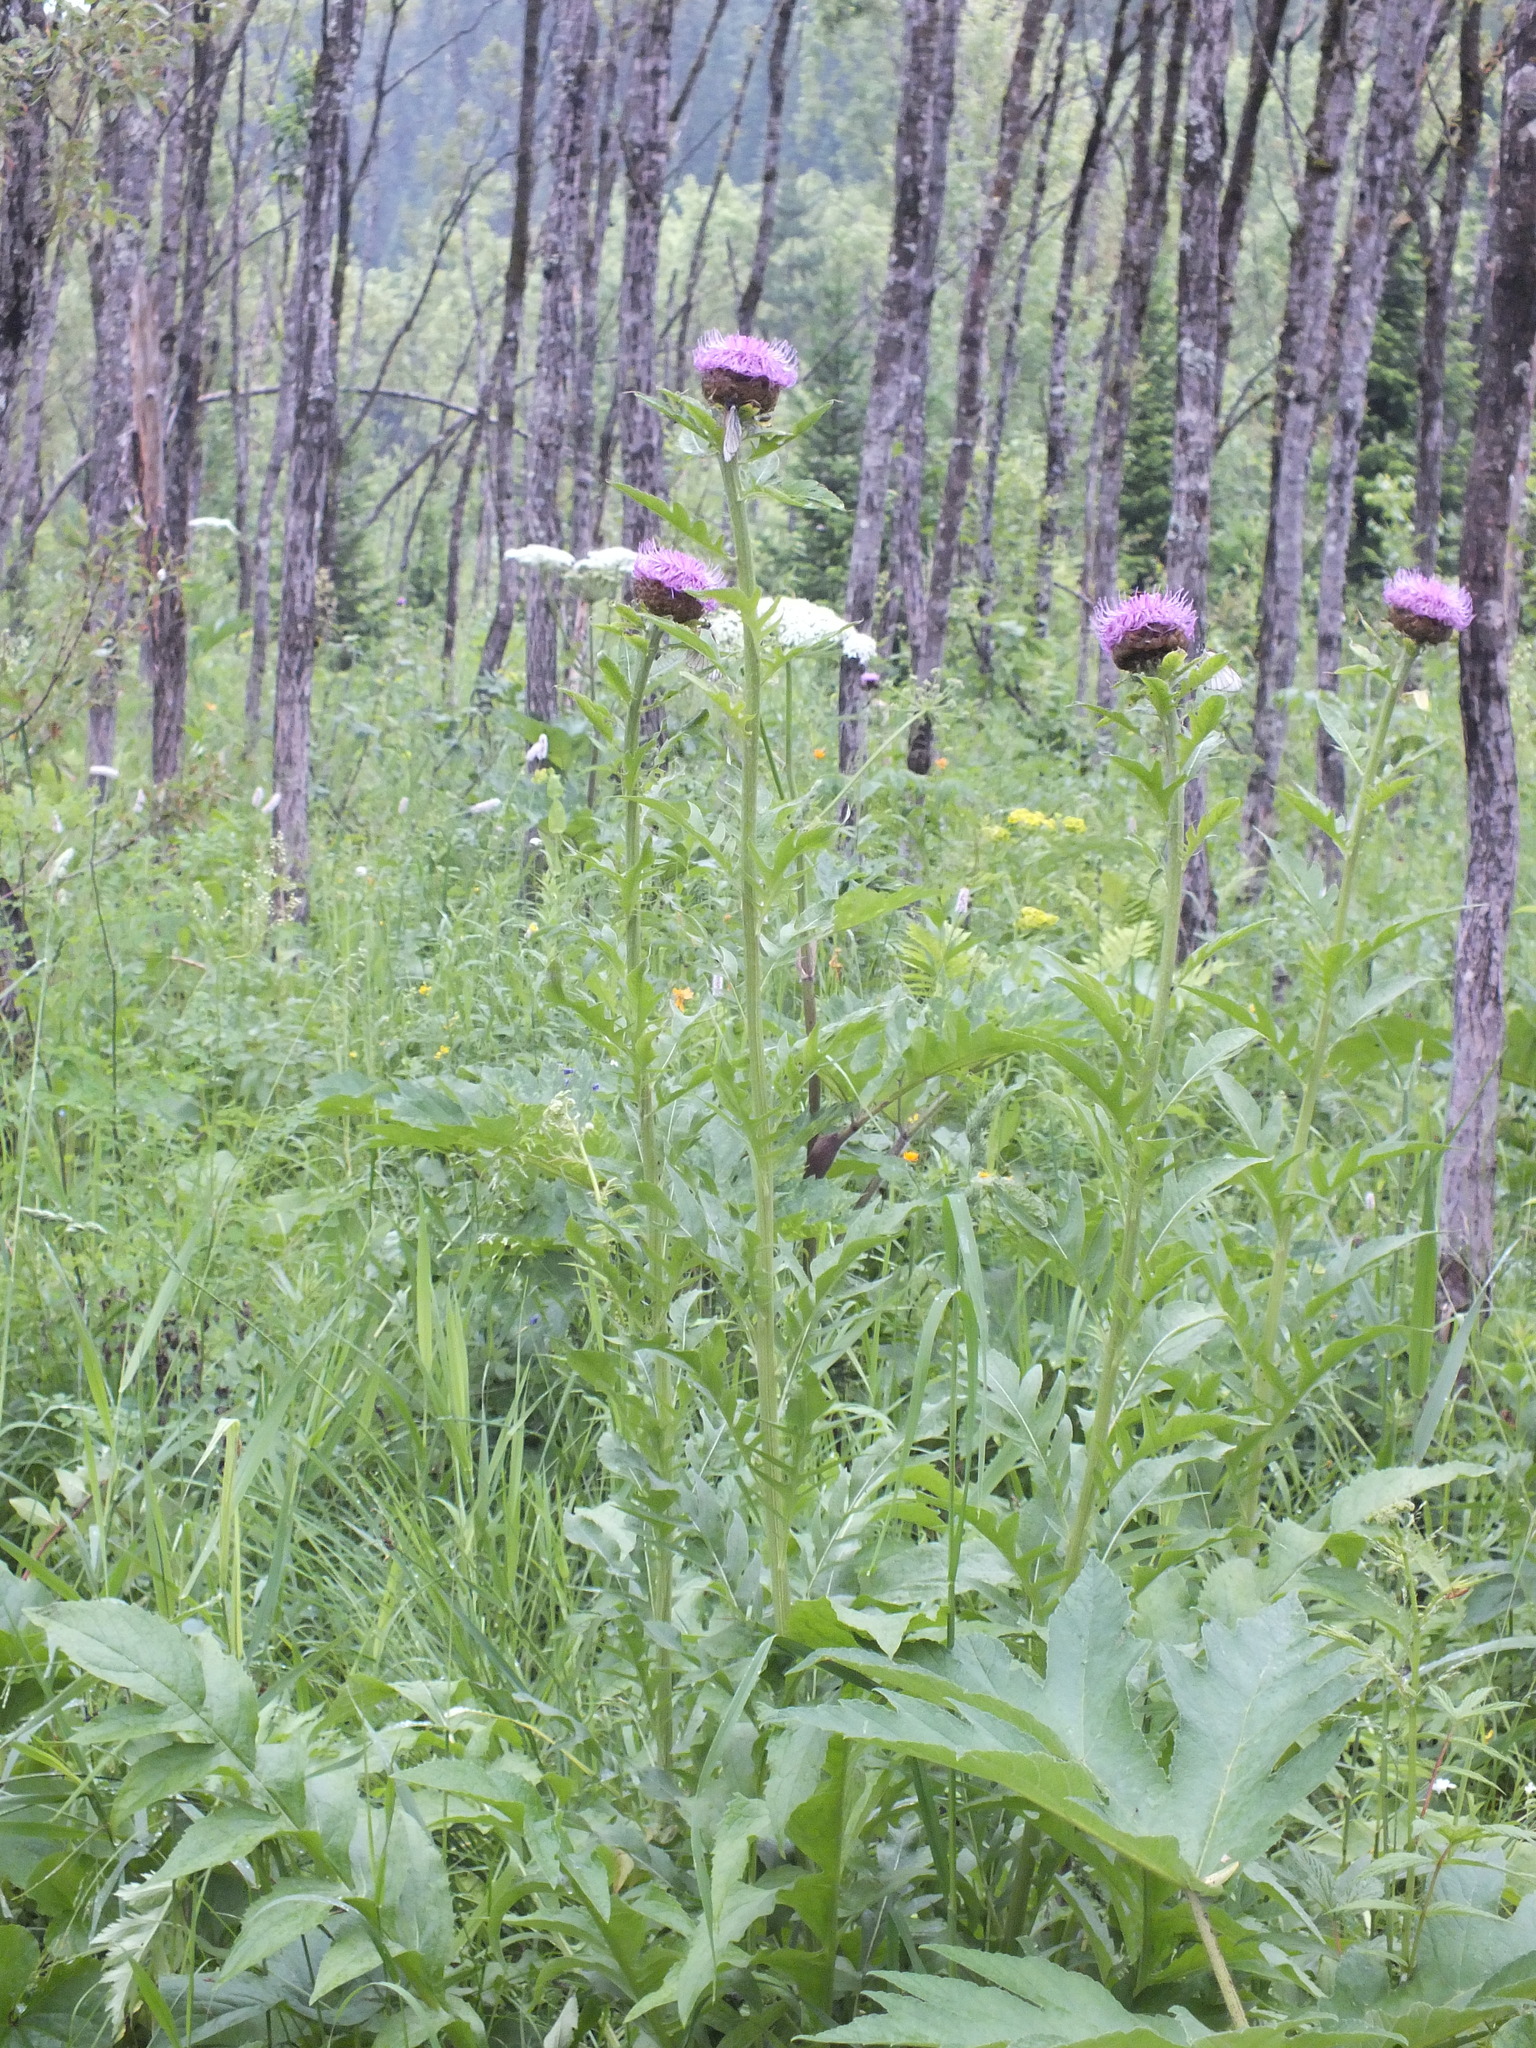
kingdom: Plantae
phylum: Tracheophyta
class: Magnoliopsida
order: Asterales
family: Asteraceae
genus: Leuzea
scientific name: Leuzea carthamoides
